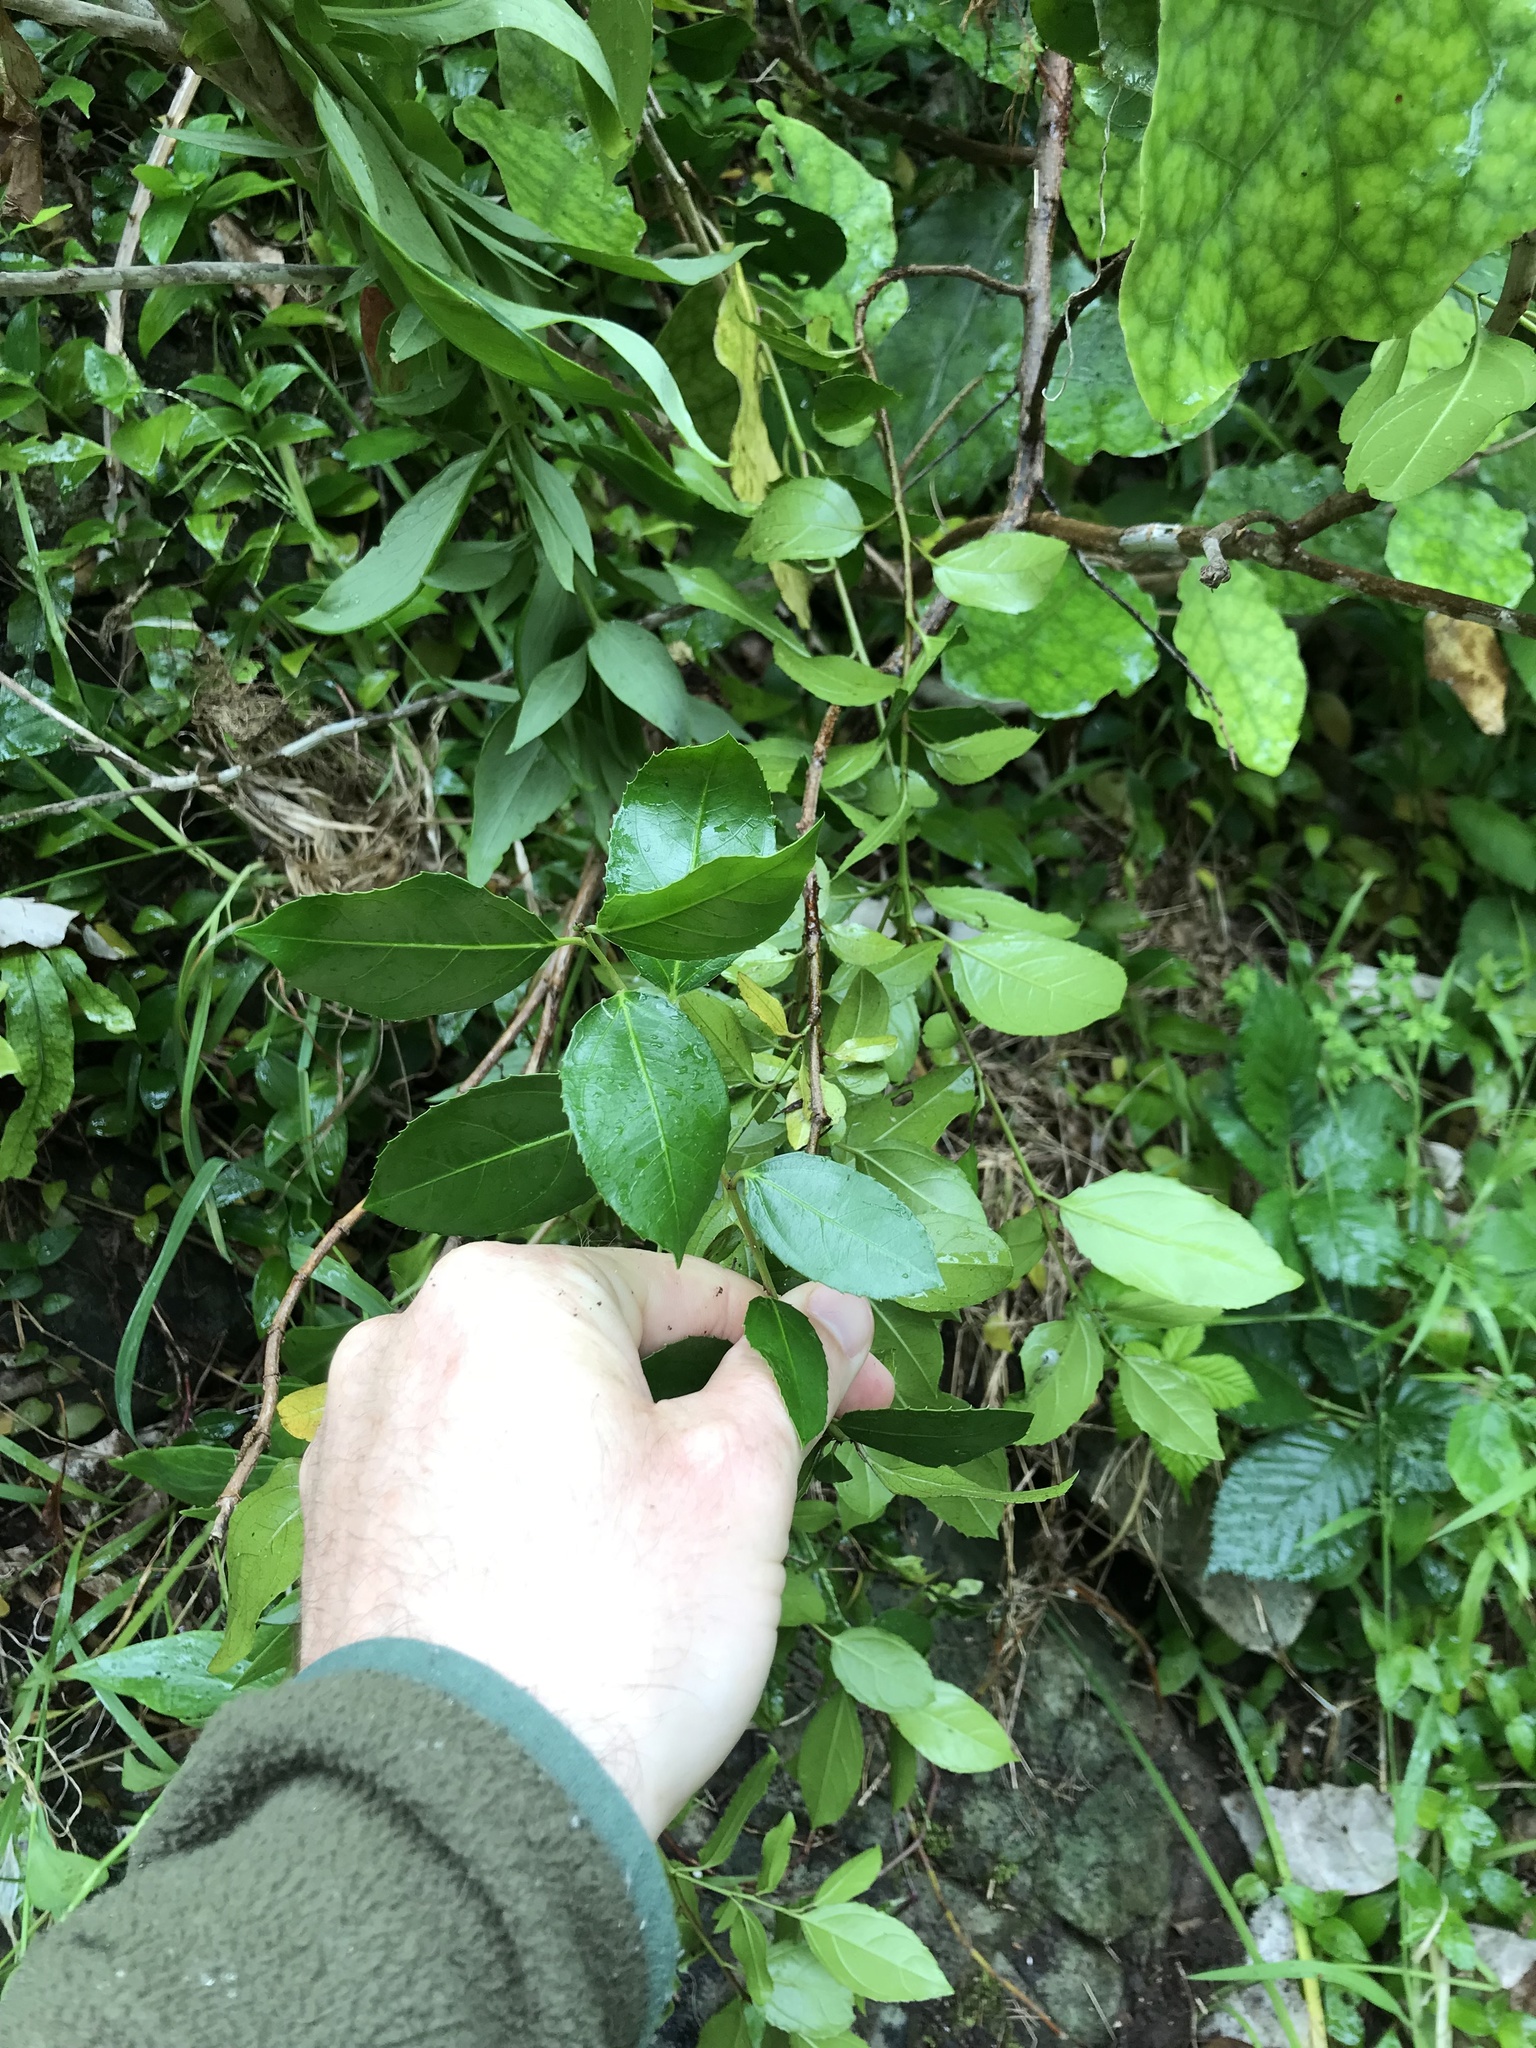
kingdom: Plantae
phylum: Tracheophyta
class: Magnoliopsida
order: Rosales
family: Rhamnaceae
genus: Rhamnus
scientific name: Rhamnus alaternus
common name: Mediterranean buckthorn
